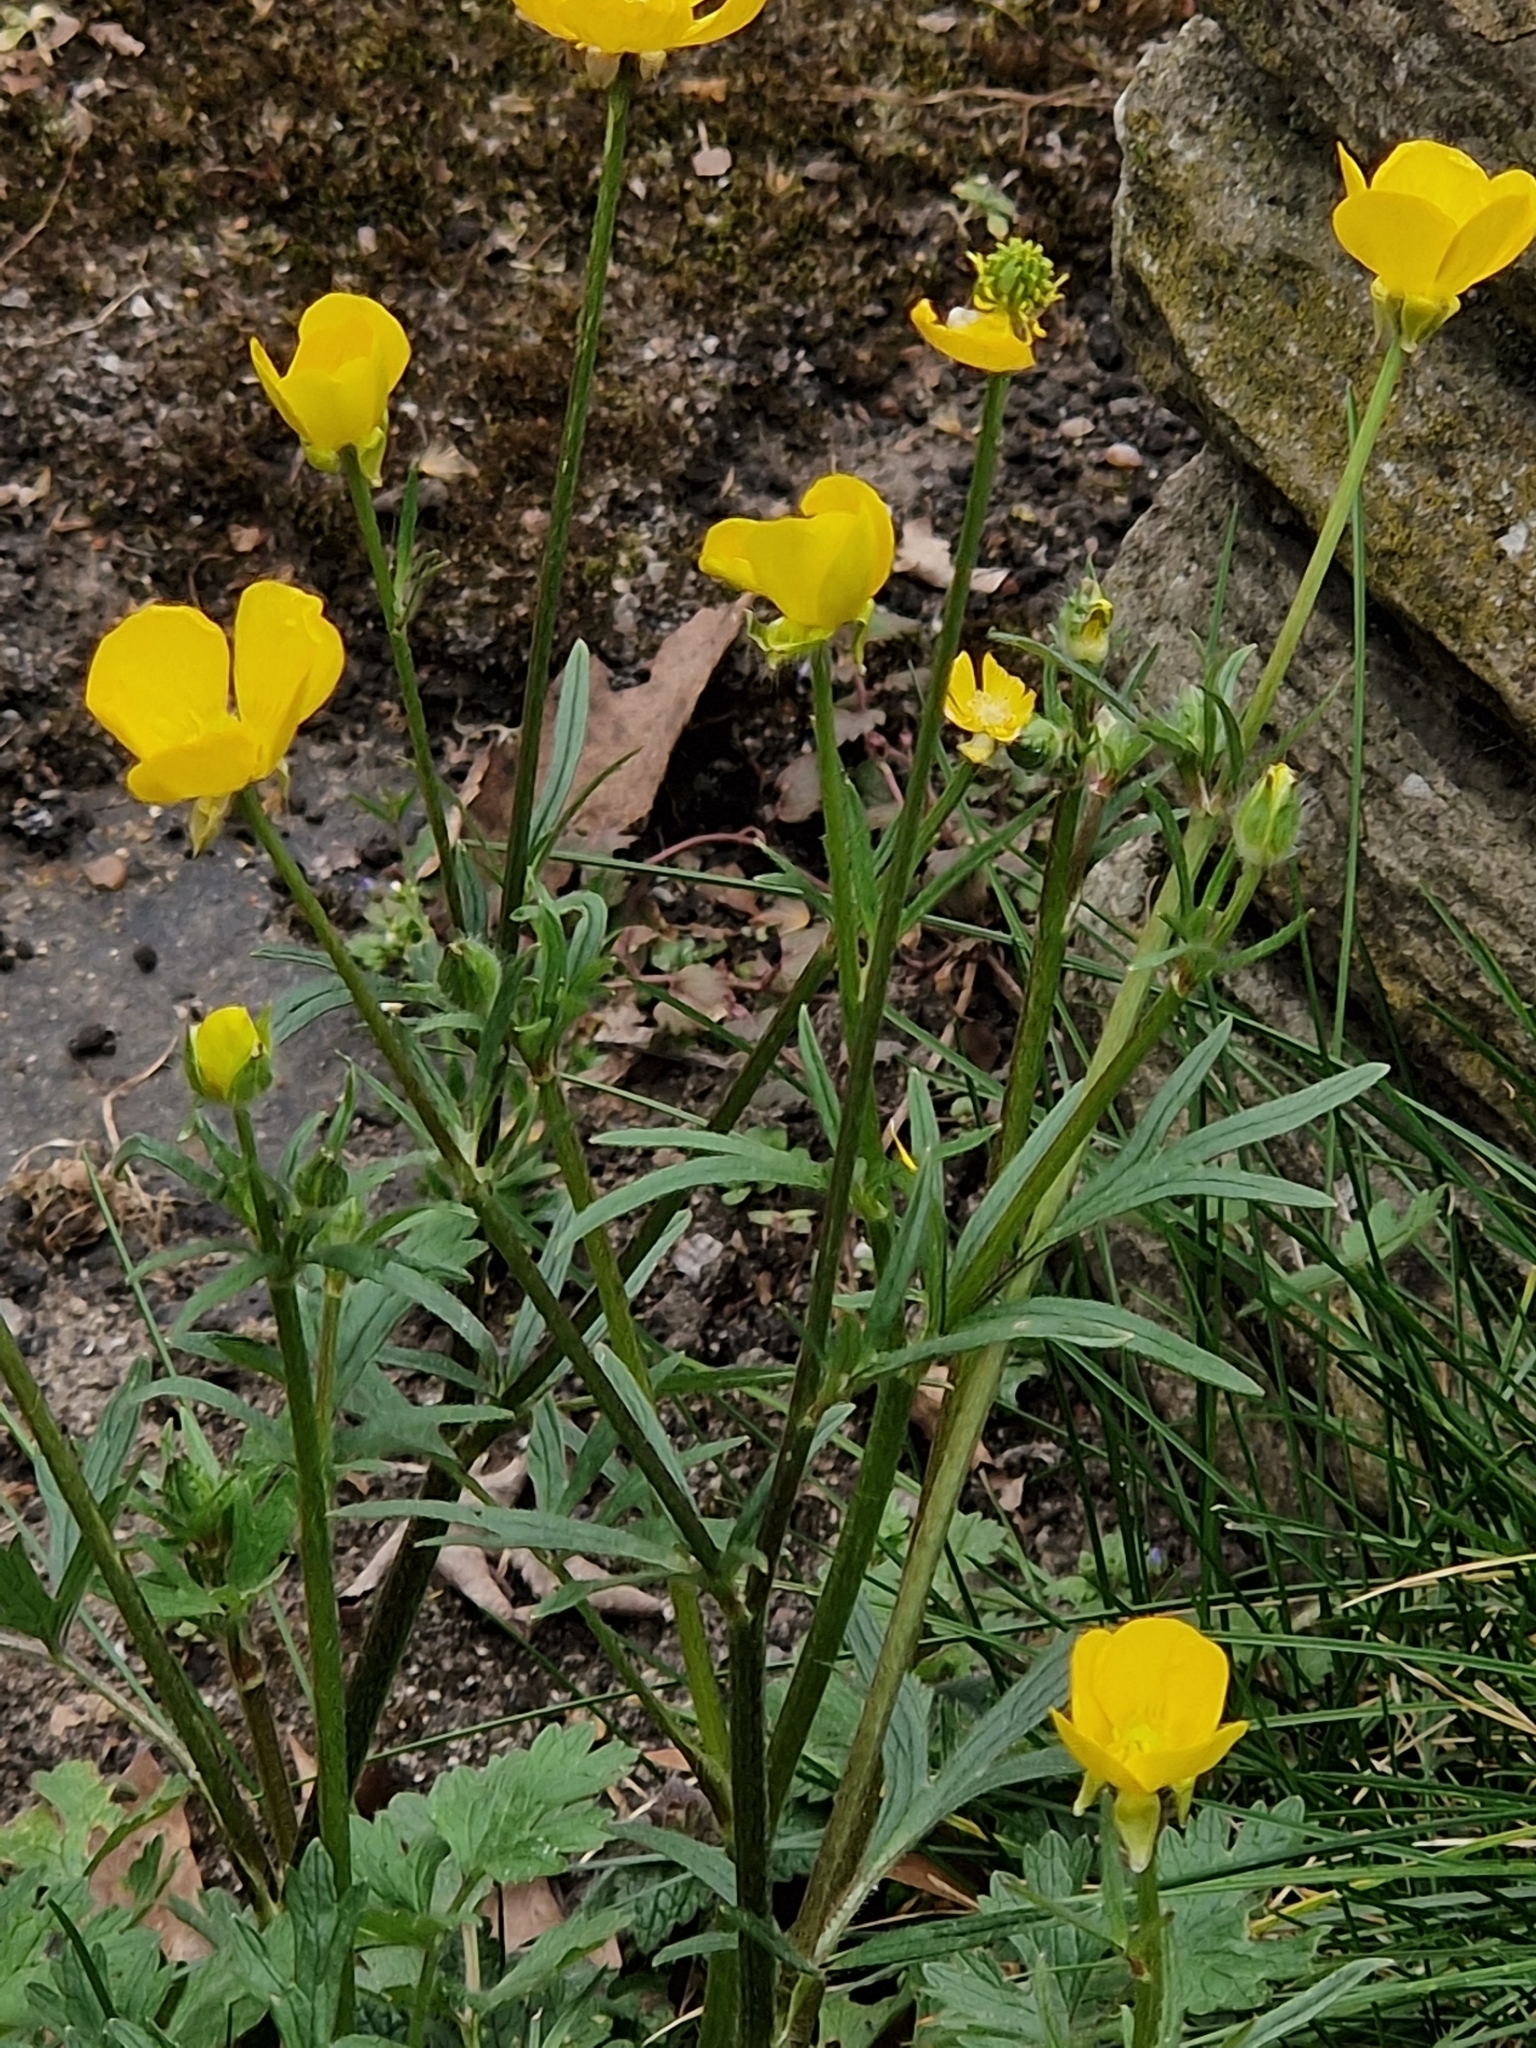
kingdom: Plantae
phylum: Tracheophyta
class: Magnoliopsida
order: Ranunculales
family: Ranunculaceae
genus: Ranunculus
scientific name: Ranunculus bulbosus
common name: Bulbous buttercup
